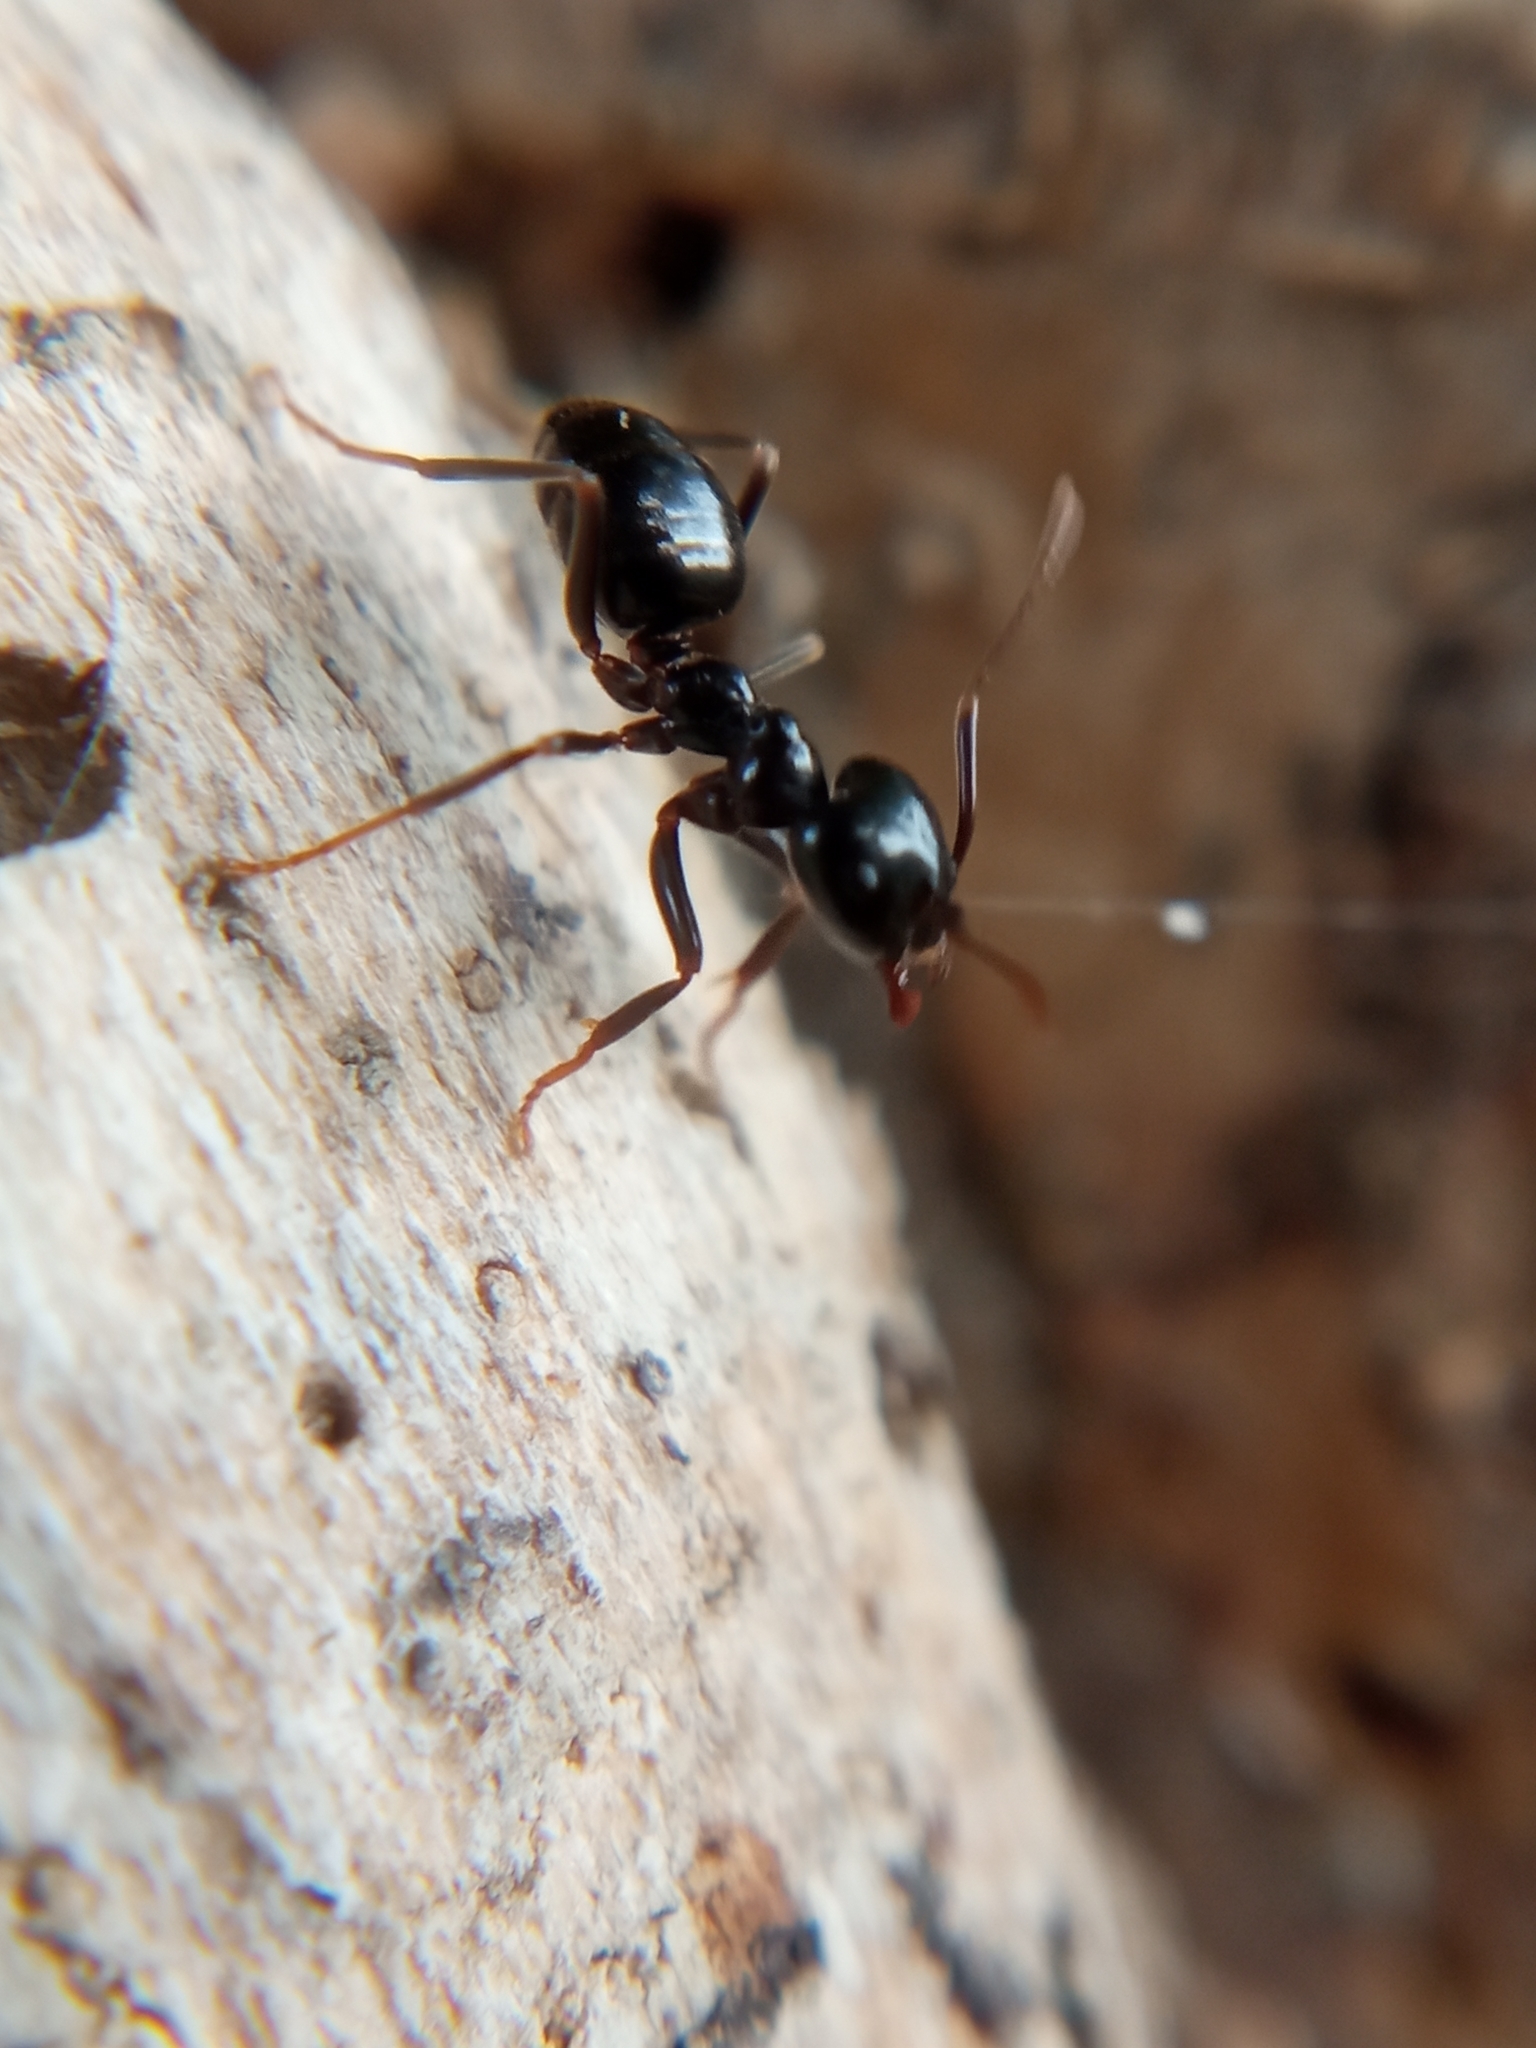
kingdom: Animalia
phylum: Arthropoda
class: Insecta
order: Hymenoptera
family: Formicidae
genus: Lasius
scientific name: Lasius fuliginosus
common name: Jet ant
